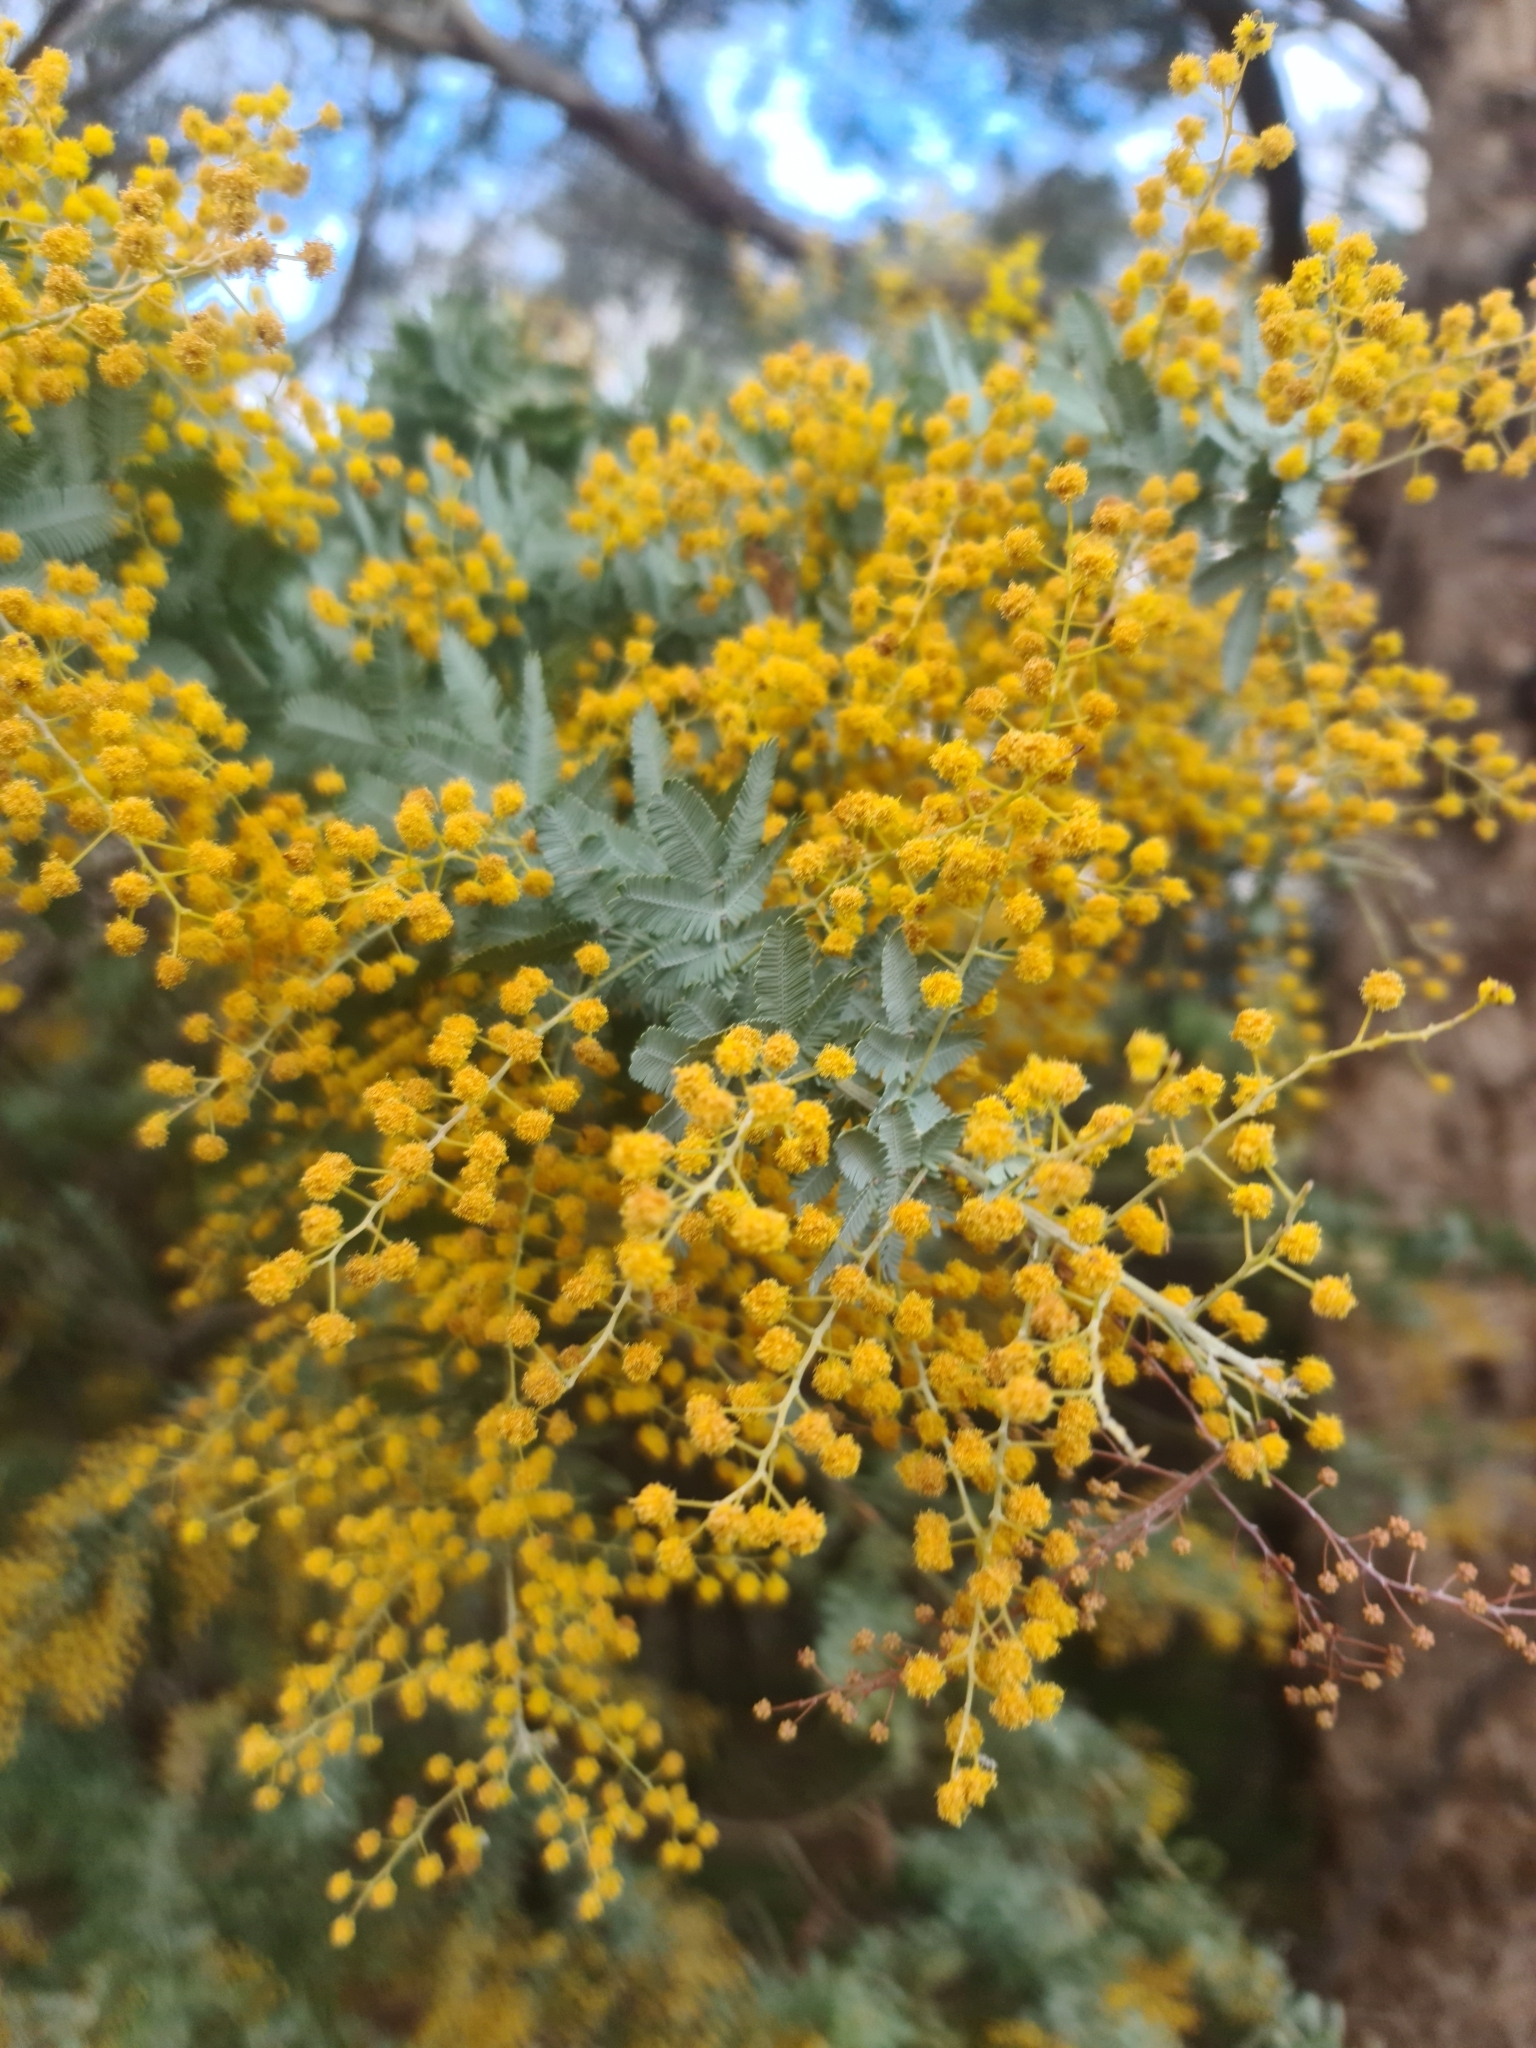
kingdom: Plantae
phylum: Tracheophyta
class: Magnoliopsida
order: Fabales
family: Fabaceae
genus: Acacia
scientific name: Acacia baileyana
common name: Cootamundra wattle
